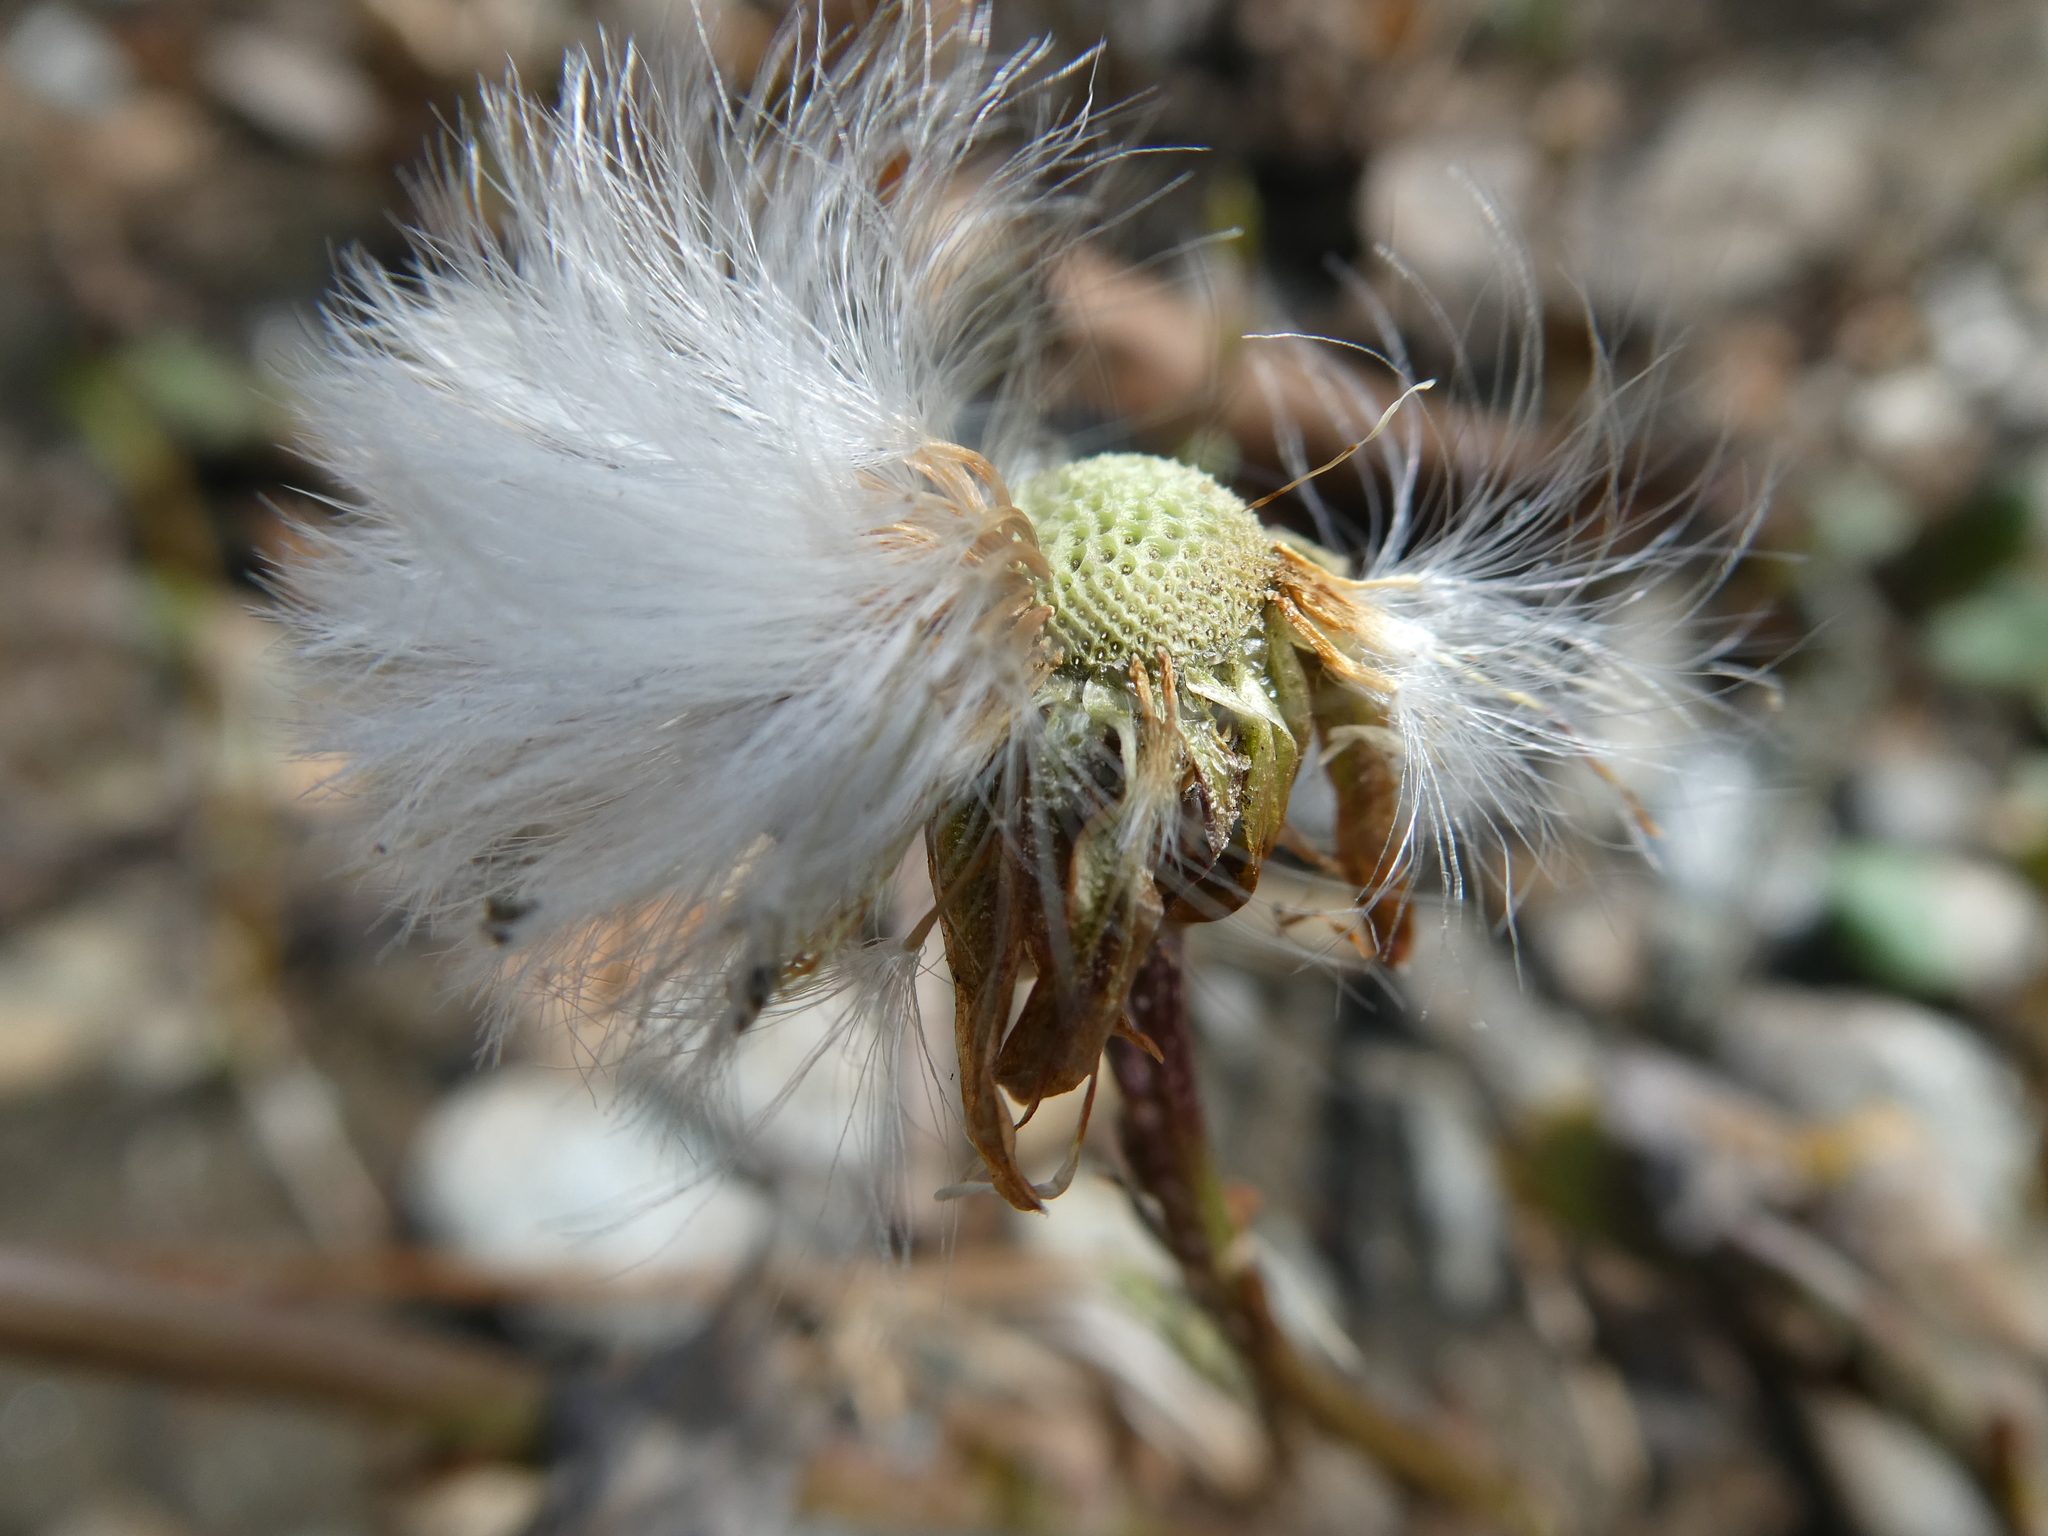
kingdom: Plantae
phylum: Tracheophyta
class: Magnoliopsida
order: Asterales
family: Asteraceae
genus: Tussilago
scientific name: Tussilago farfara
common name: Coltsfoot
